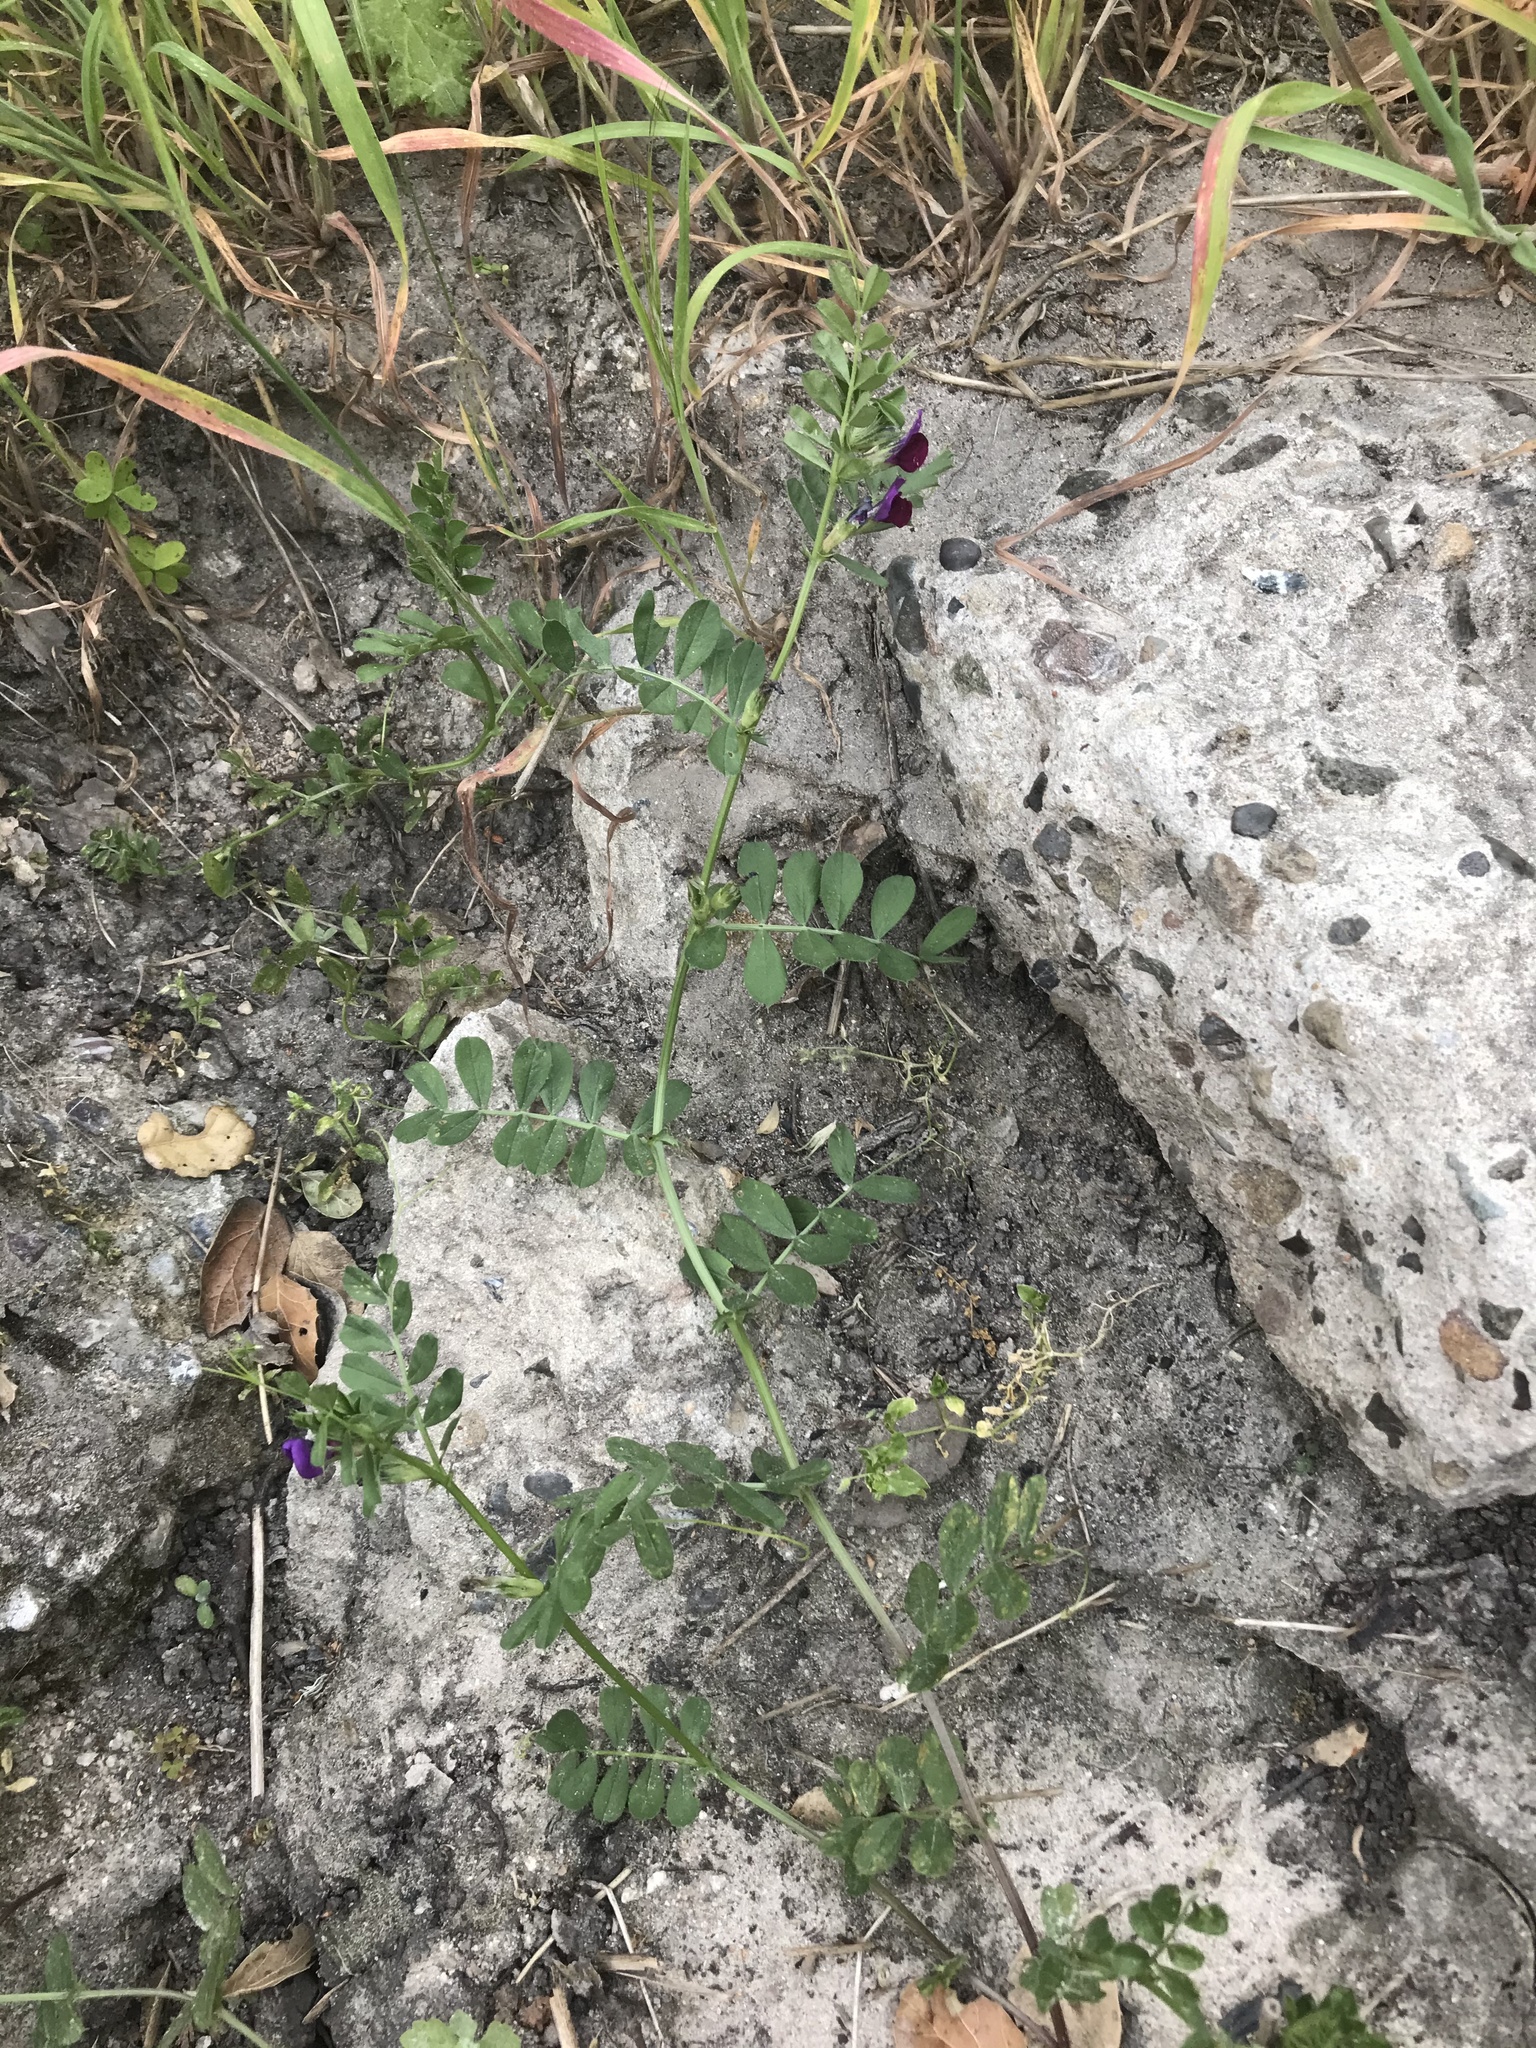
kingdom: Plantae
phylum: Tracheophyta
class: Magnoliopsida
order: Fabales
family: Fabaceae
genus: Vicia
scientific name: Vicia sativa
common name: Garden vetch
